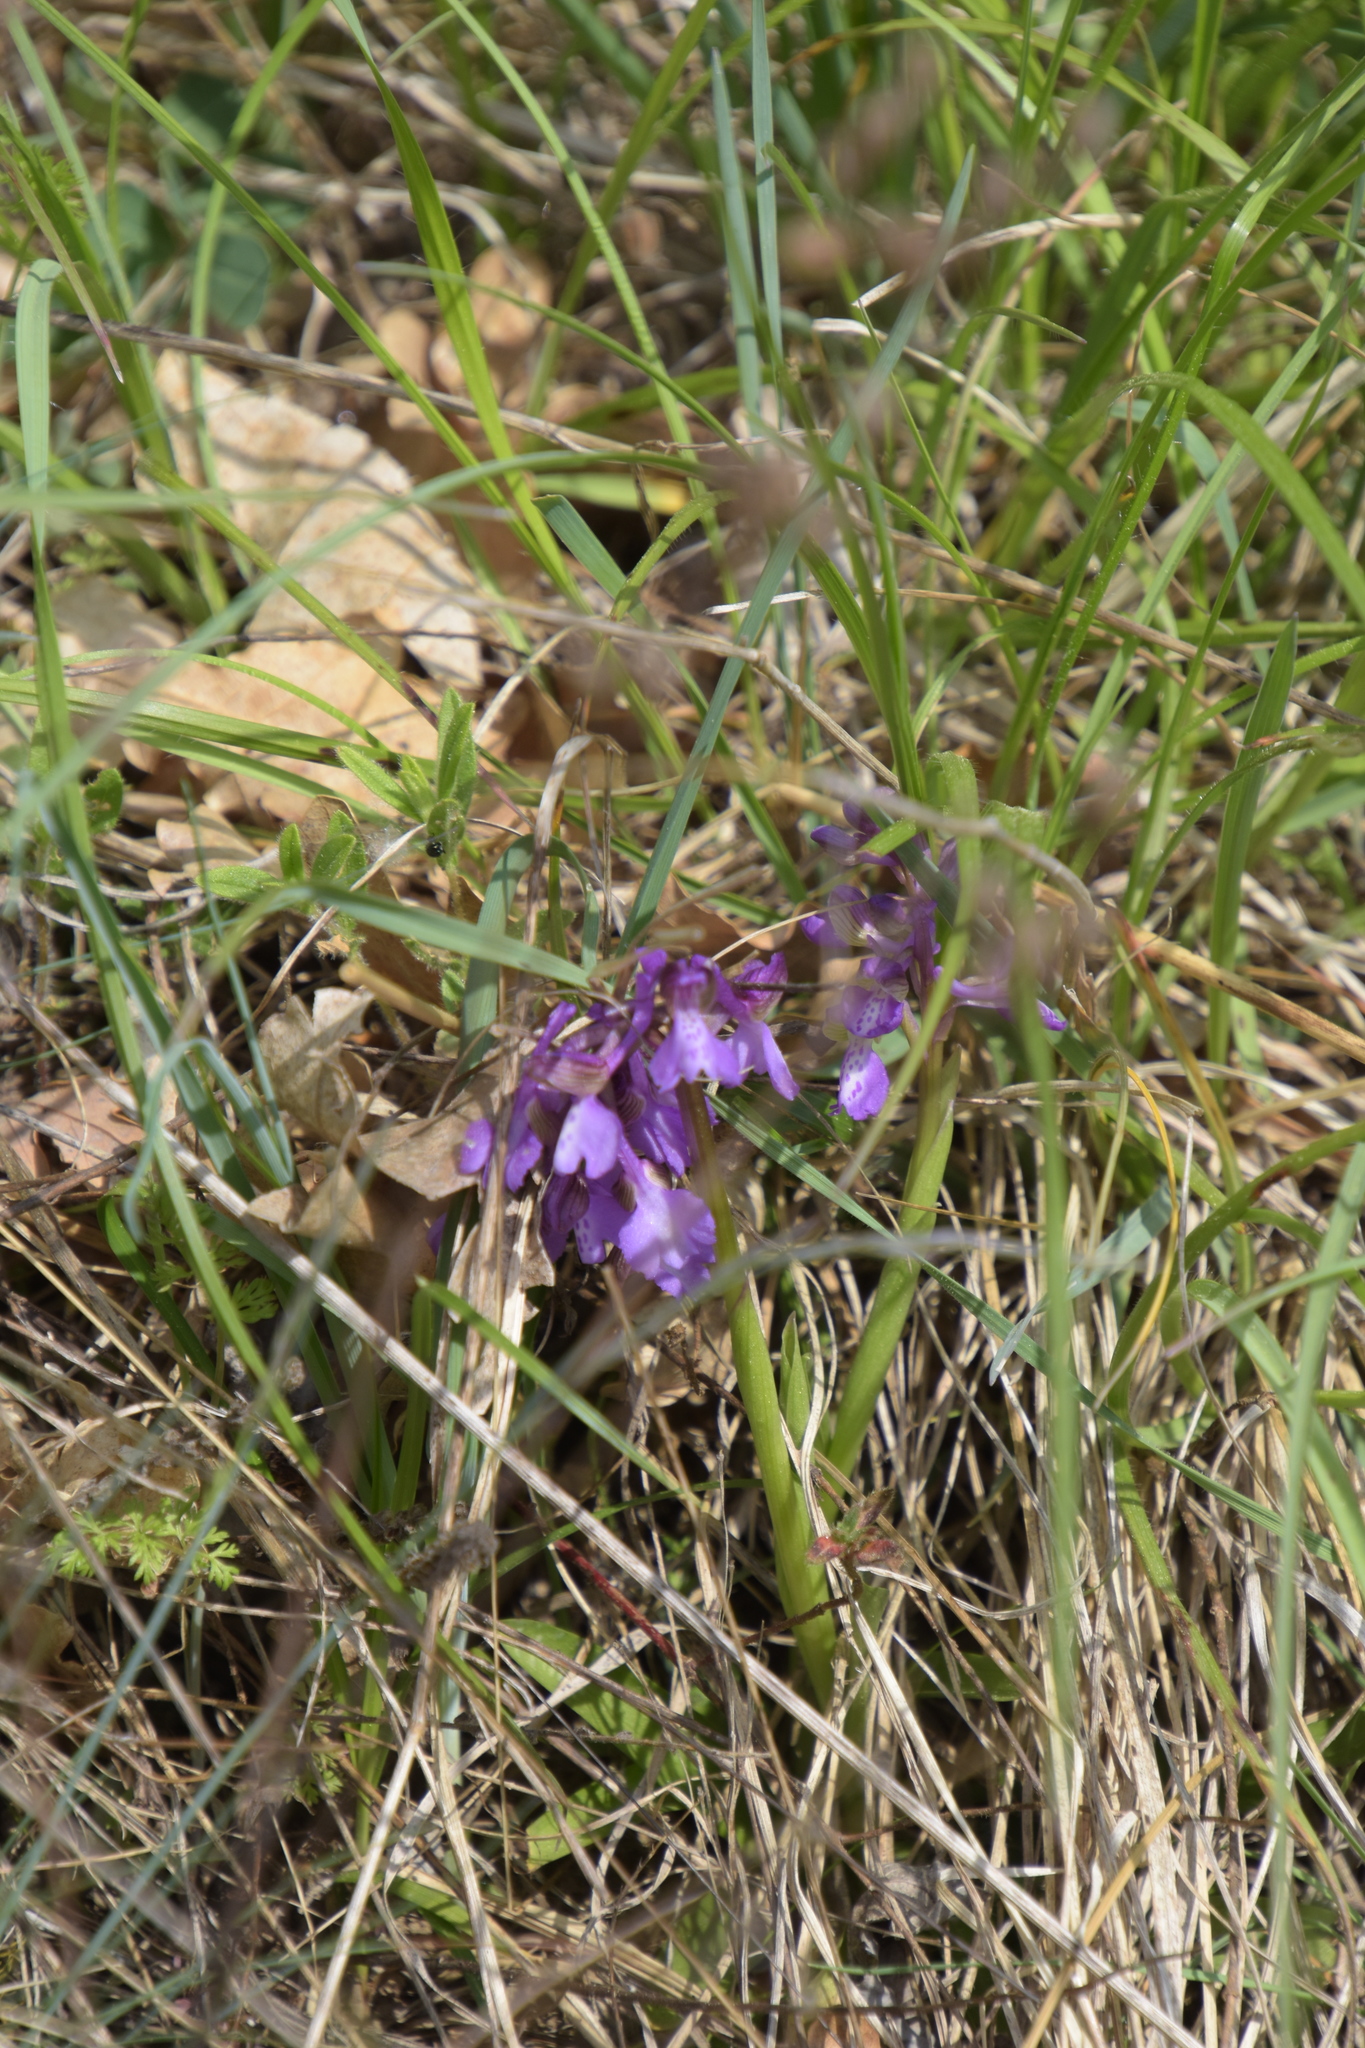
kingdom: Plantae
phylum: Tracheophyta
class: Liliopsida
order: Asparagales
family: Orchidaceae
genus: Anacamptis
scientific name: Anacamptis morio
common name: Green-winged orchid
